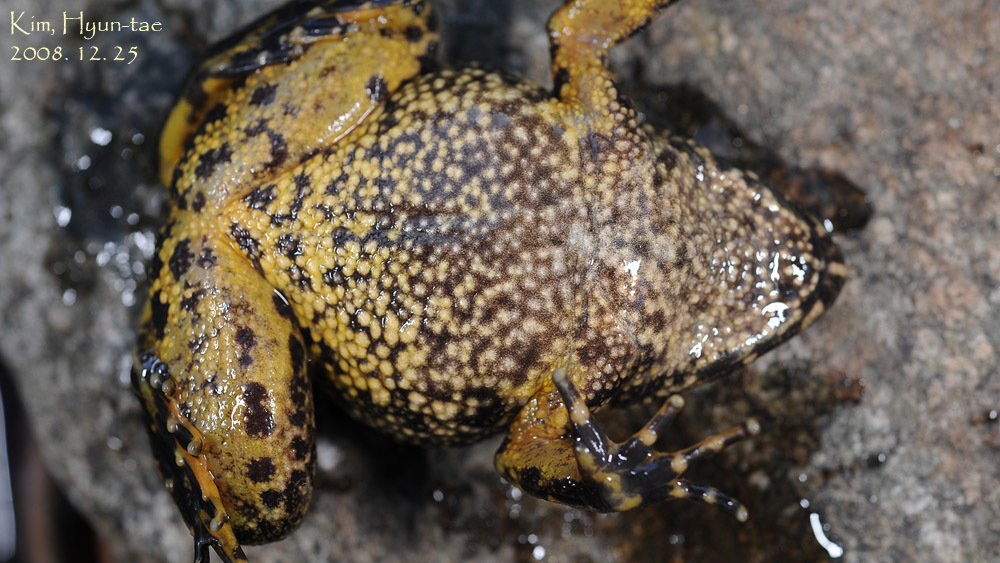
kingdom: Animalia
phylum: Chordata
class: Amphibia
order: Anura
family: Ranidae
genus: Glandirana
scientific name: Glandirana emeljanovi
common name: Northeast china rough-skinned frog
